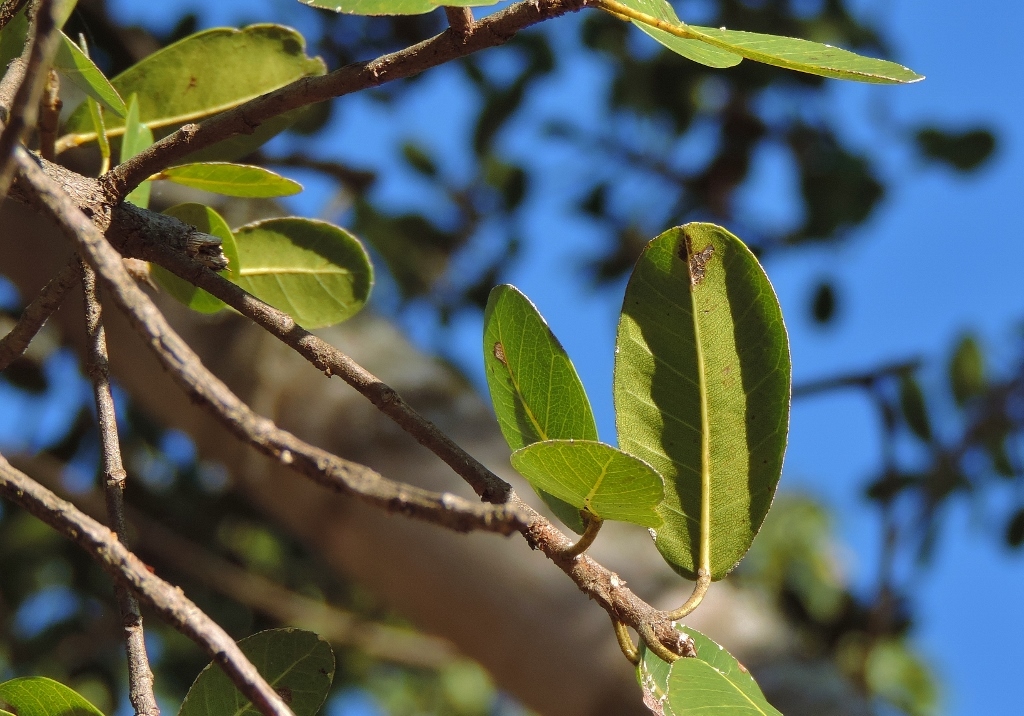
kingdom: Plantae
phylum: Tracheophyta
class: Magnoliopsida
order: Rosales
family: Moraceae
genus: Ficus
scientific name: Ficus thonningii
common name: Fig
